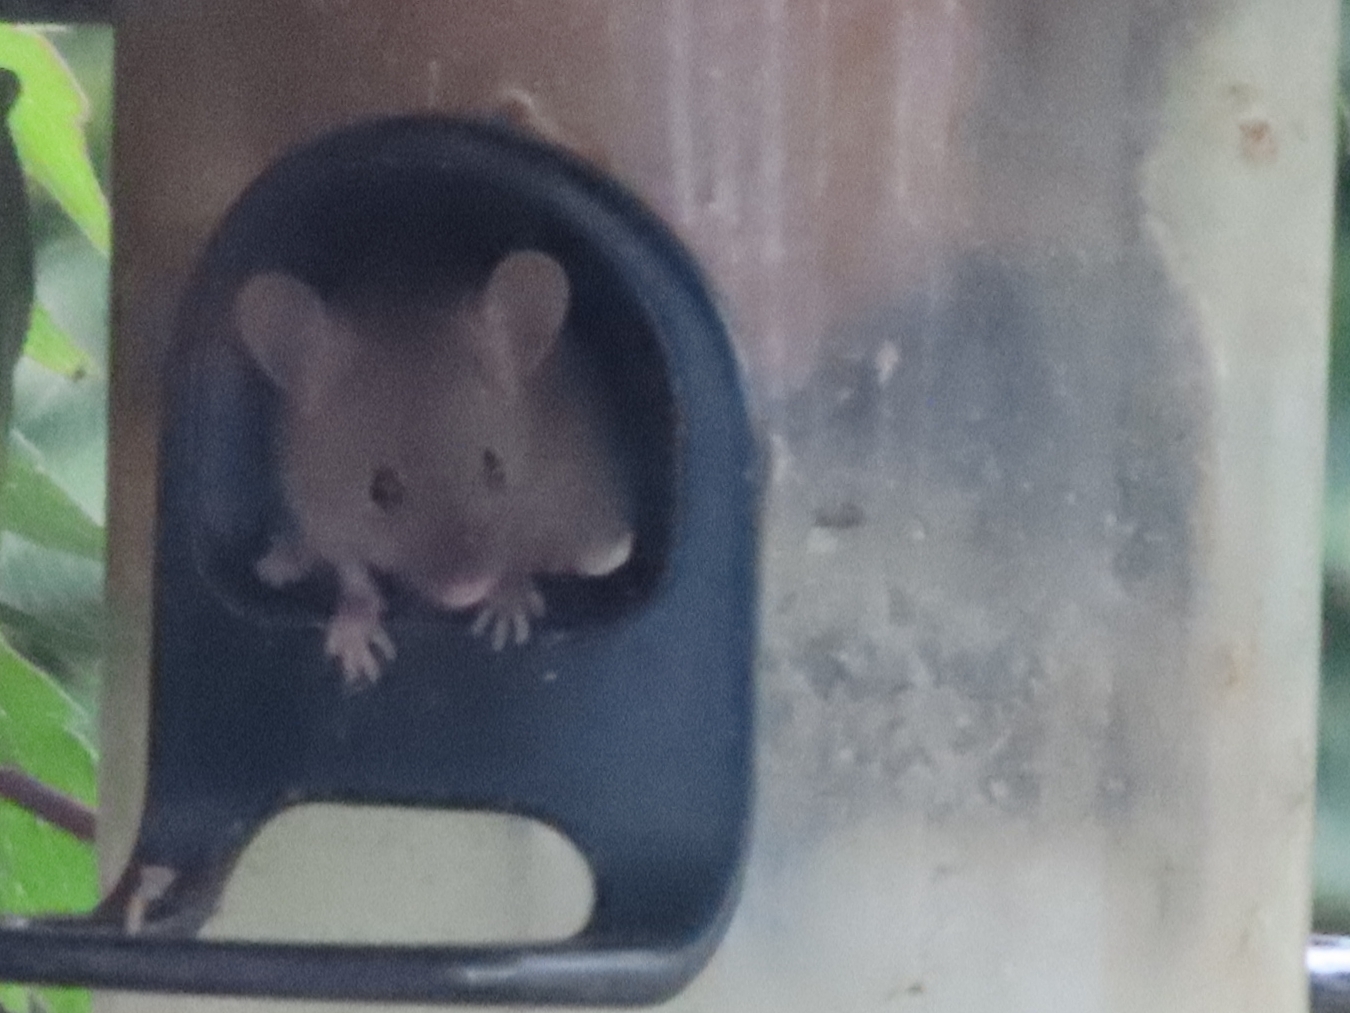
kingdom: Animalia
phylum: Chordata
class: Mammalia
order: Rodentia
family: Muridae
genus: Mus
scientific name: Mus musculus
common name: House mouse
